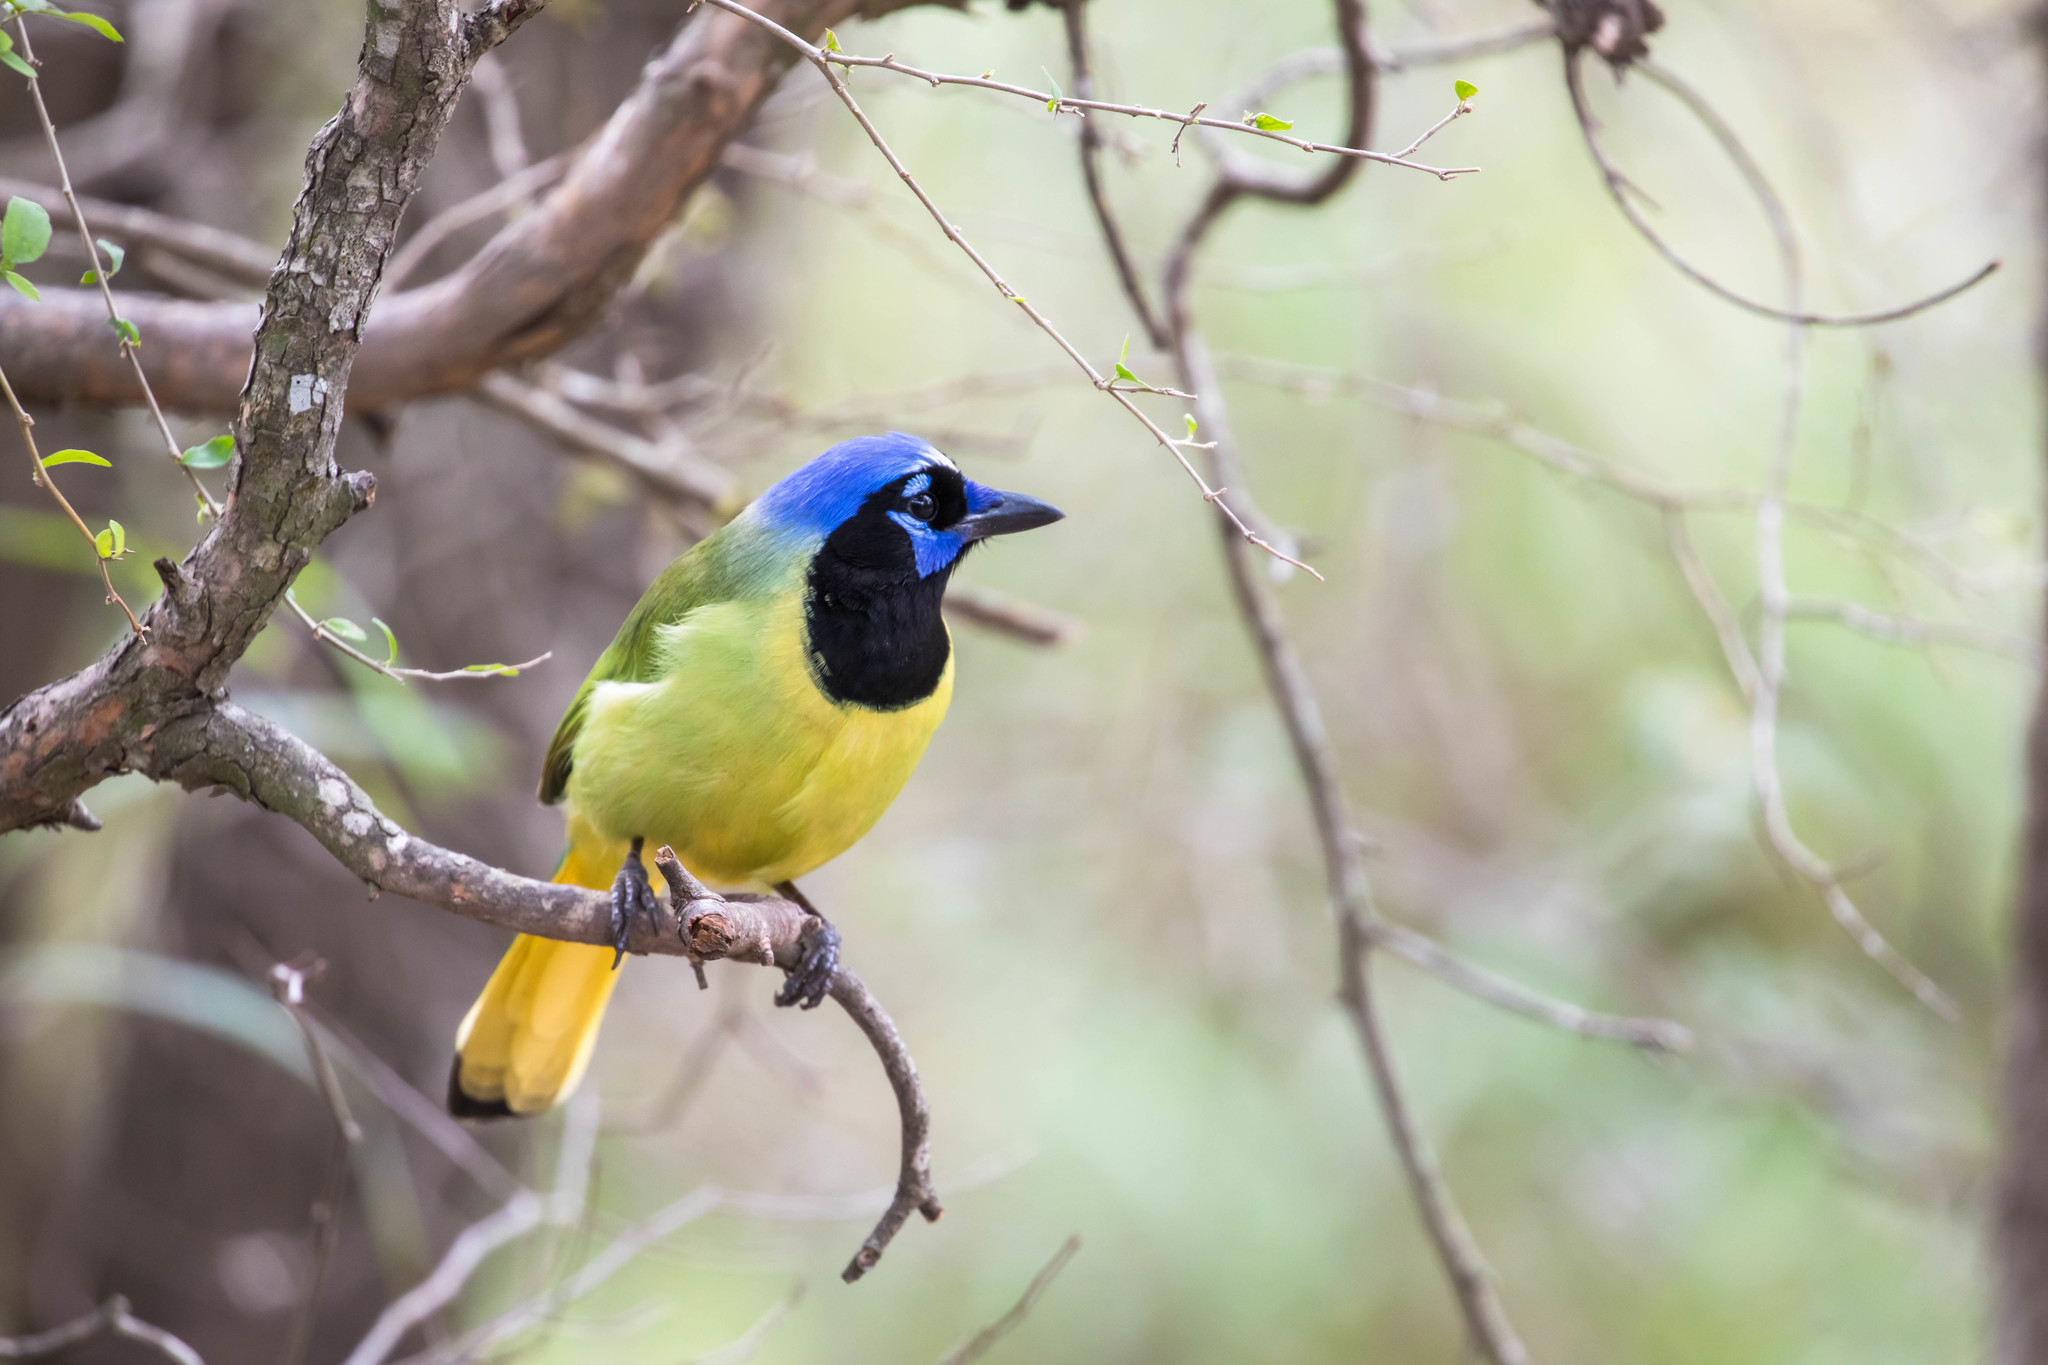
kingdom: Animalia
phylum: Chordata
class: Aves
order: Passeriformes
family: Corvidae
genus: Cyanocorax
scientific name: Cyanocorax yncas
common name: Green jay
